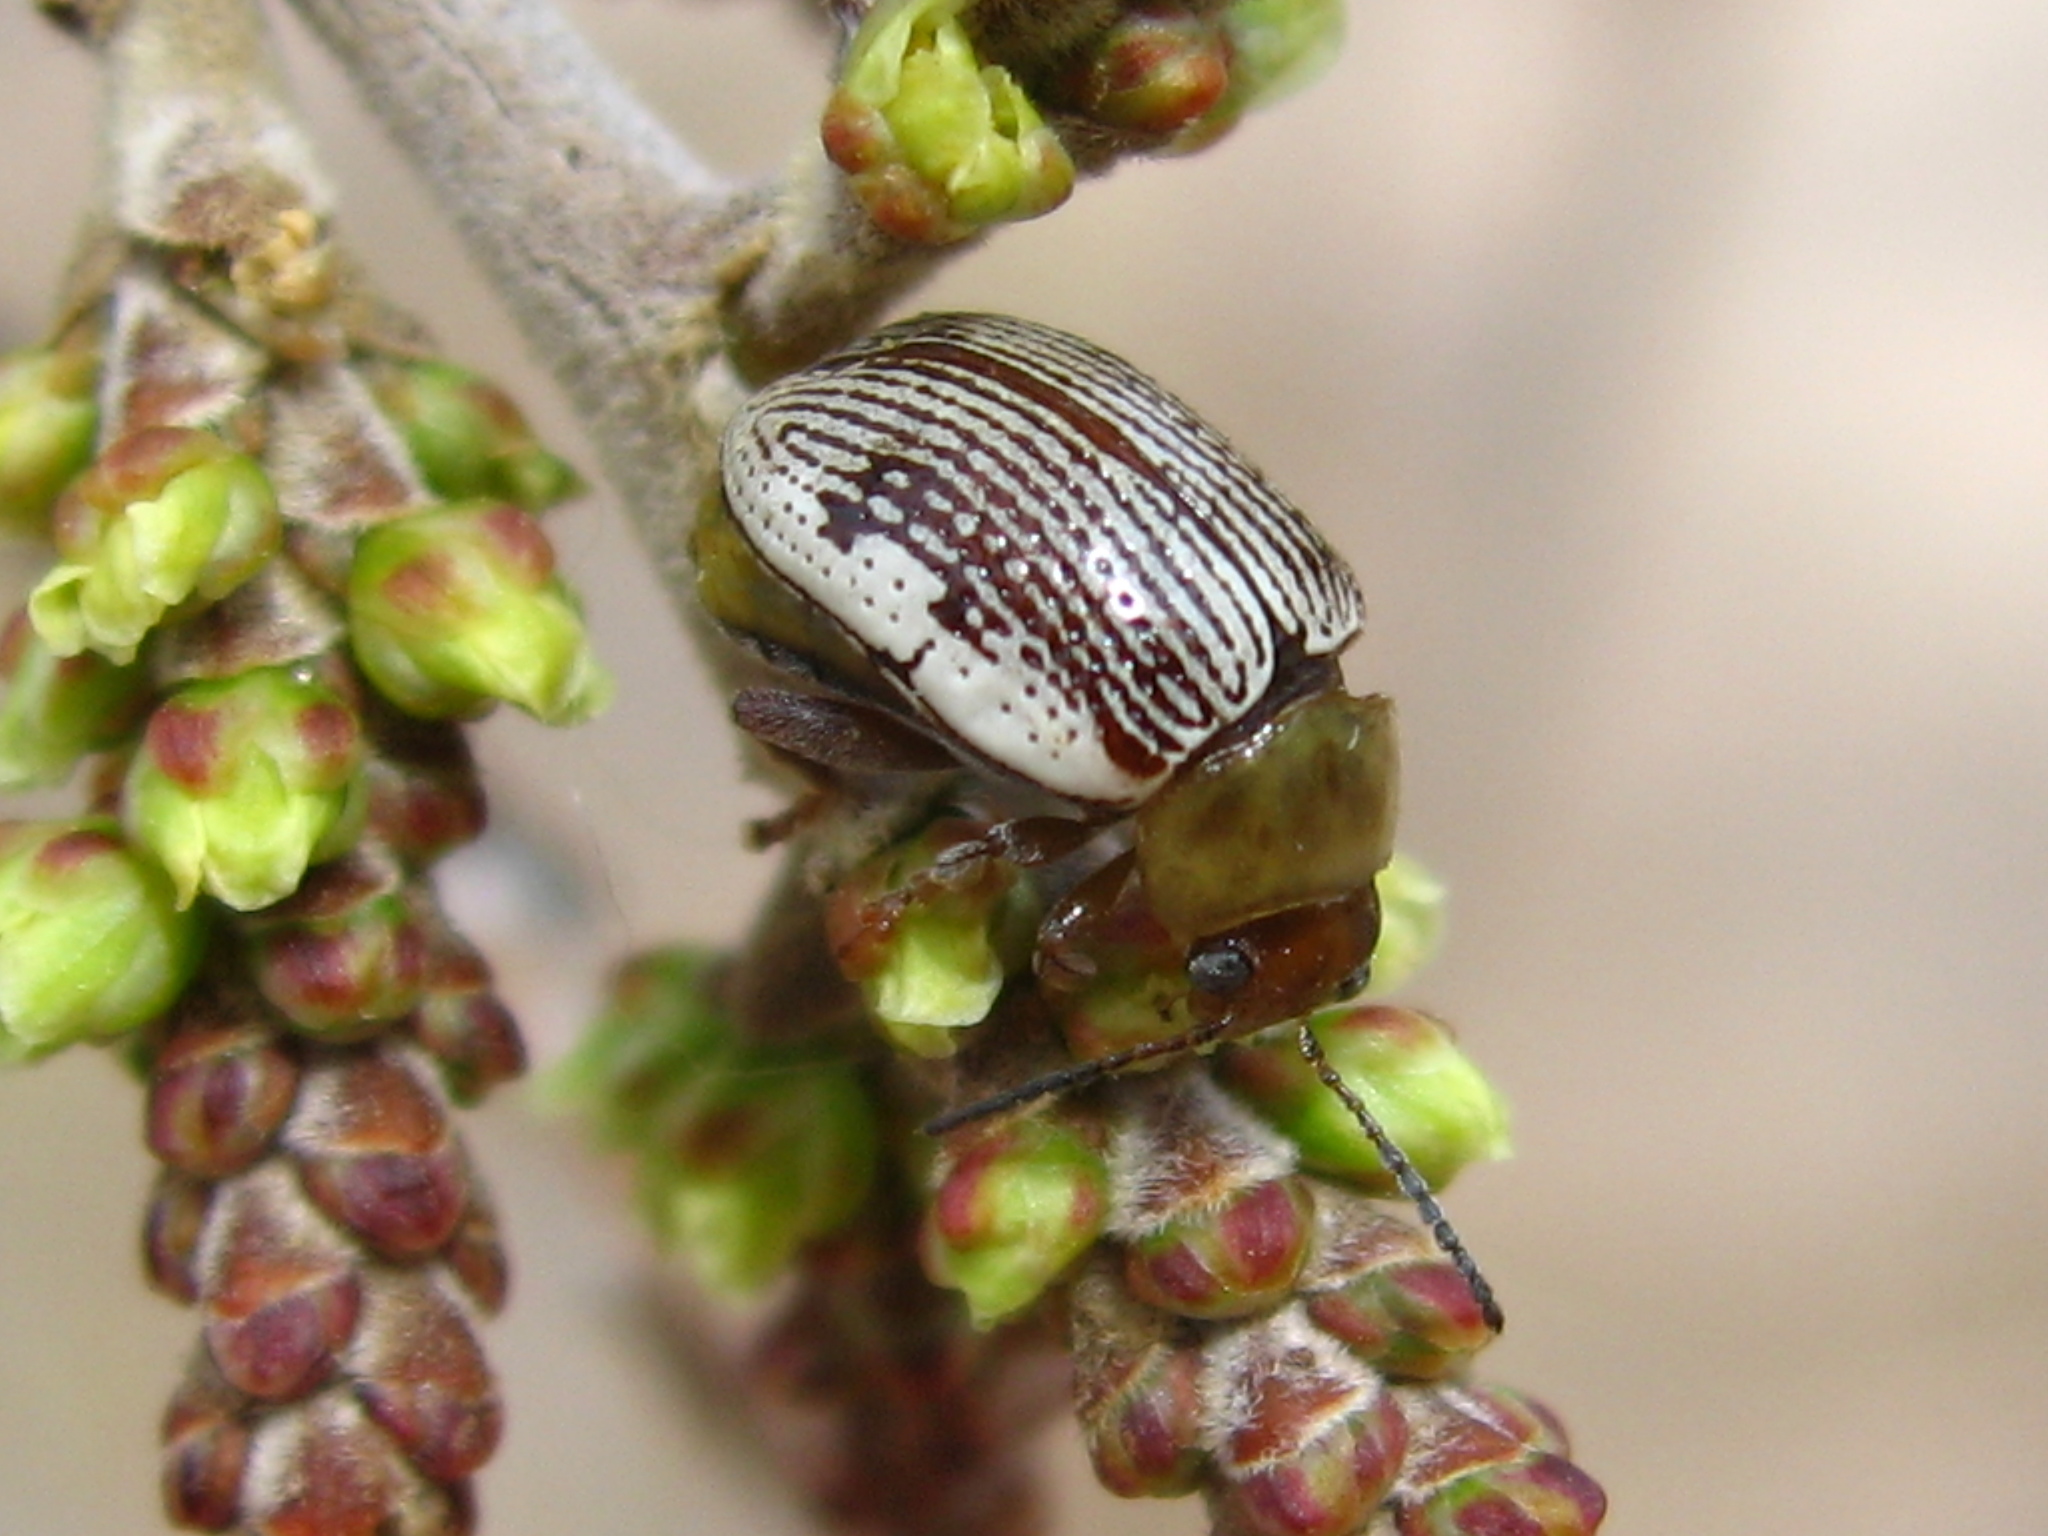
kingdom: Animalia
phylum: Arthropoda
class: Insecta
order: Coleoptera
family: Chrysomelidae
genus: Blepharida
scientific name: Blepharida rhois
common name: Sumac flea beetle
